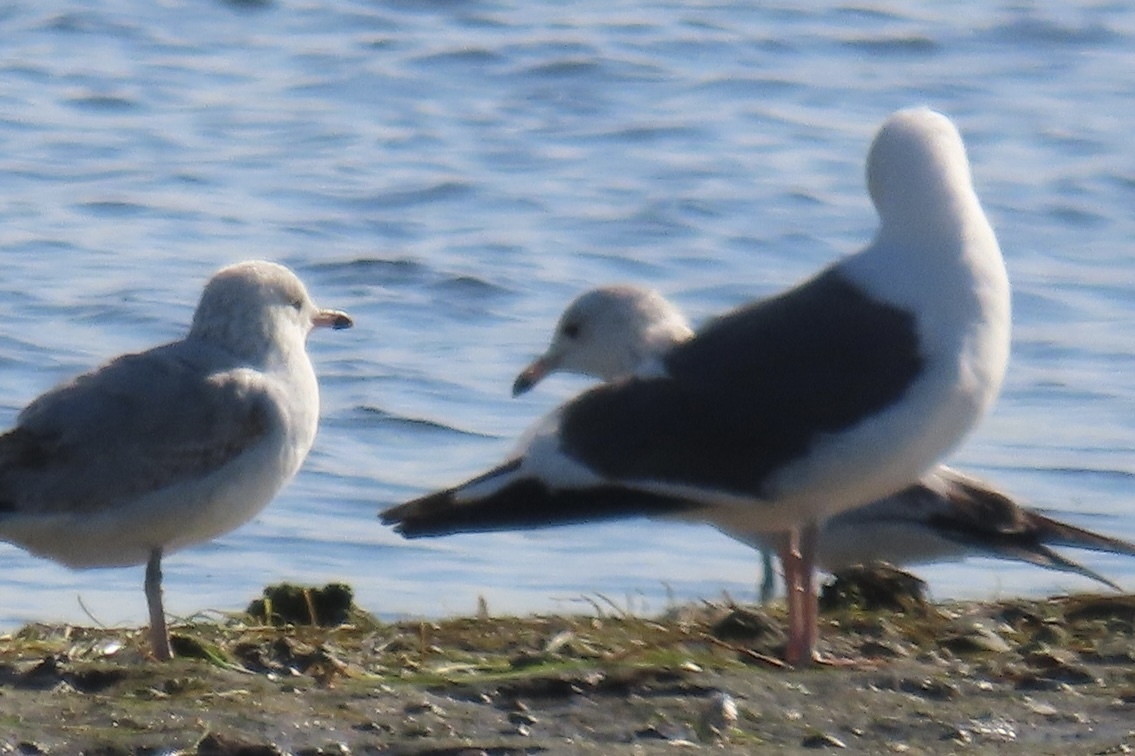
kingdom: Animalia
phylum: Chordata
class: Aves
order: Charadriiformes
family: Laridae
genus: Larus
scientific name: Larus occidentalis
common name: Western gull
